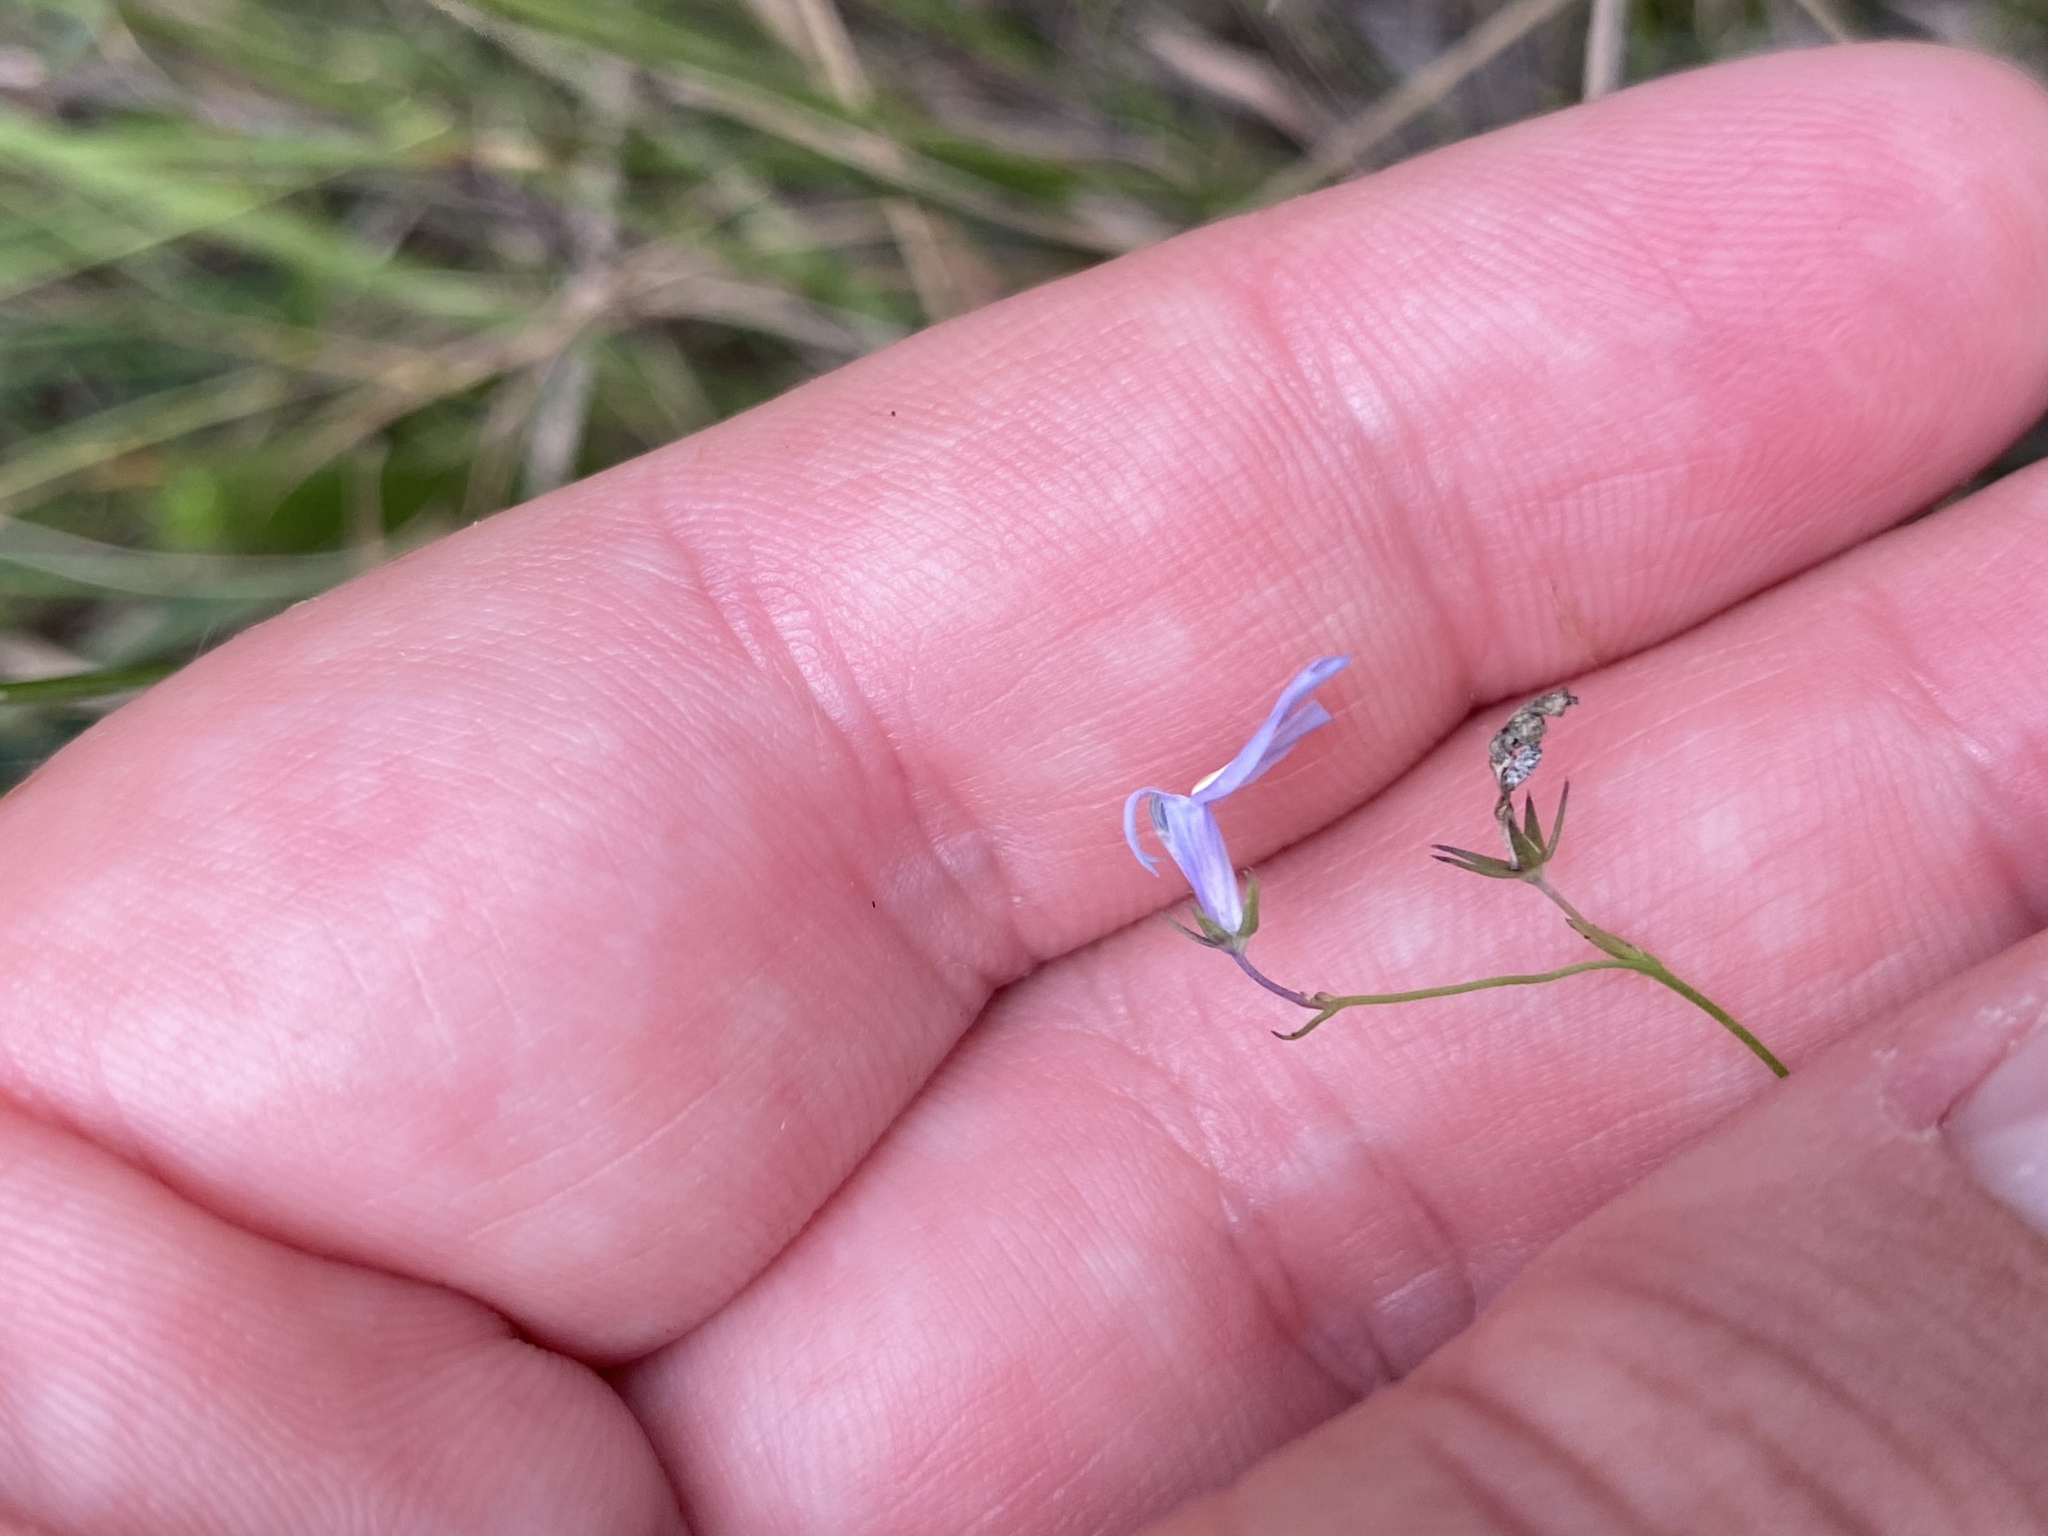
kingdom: Plantae
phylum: Tracheophyta
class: Magnoliopsida
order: Asterales
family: Campanulaceae
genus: Lobelia
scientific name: Lobelia nuttallii
